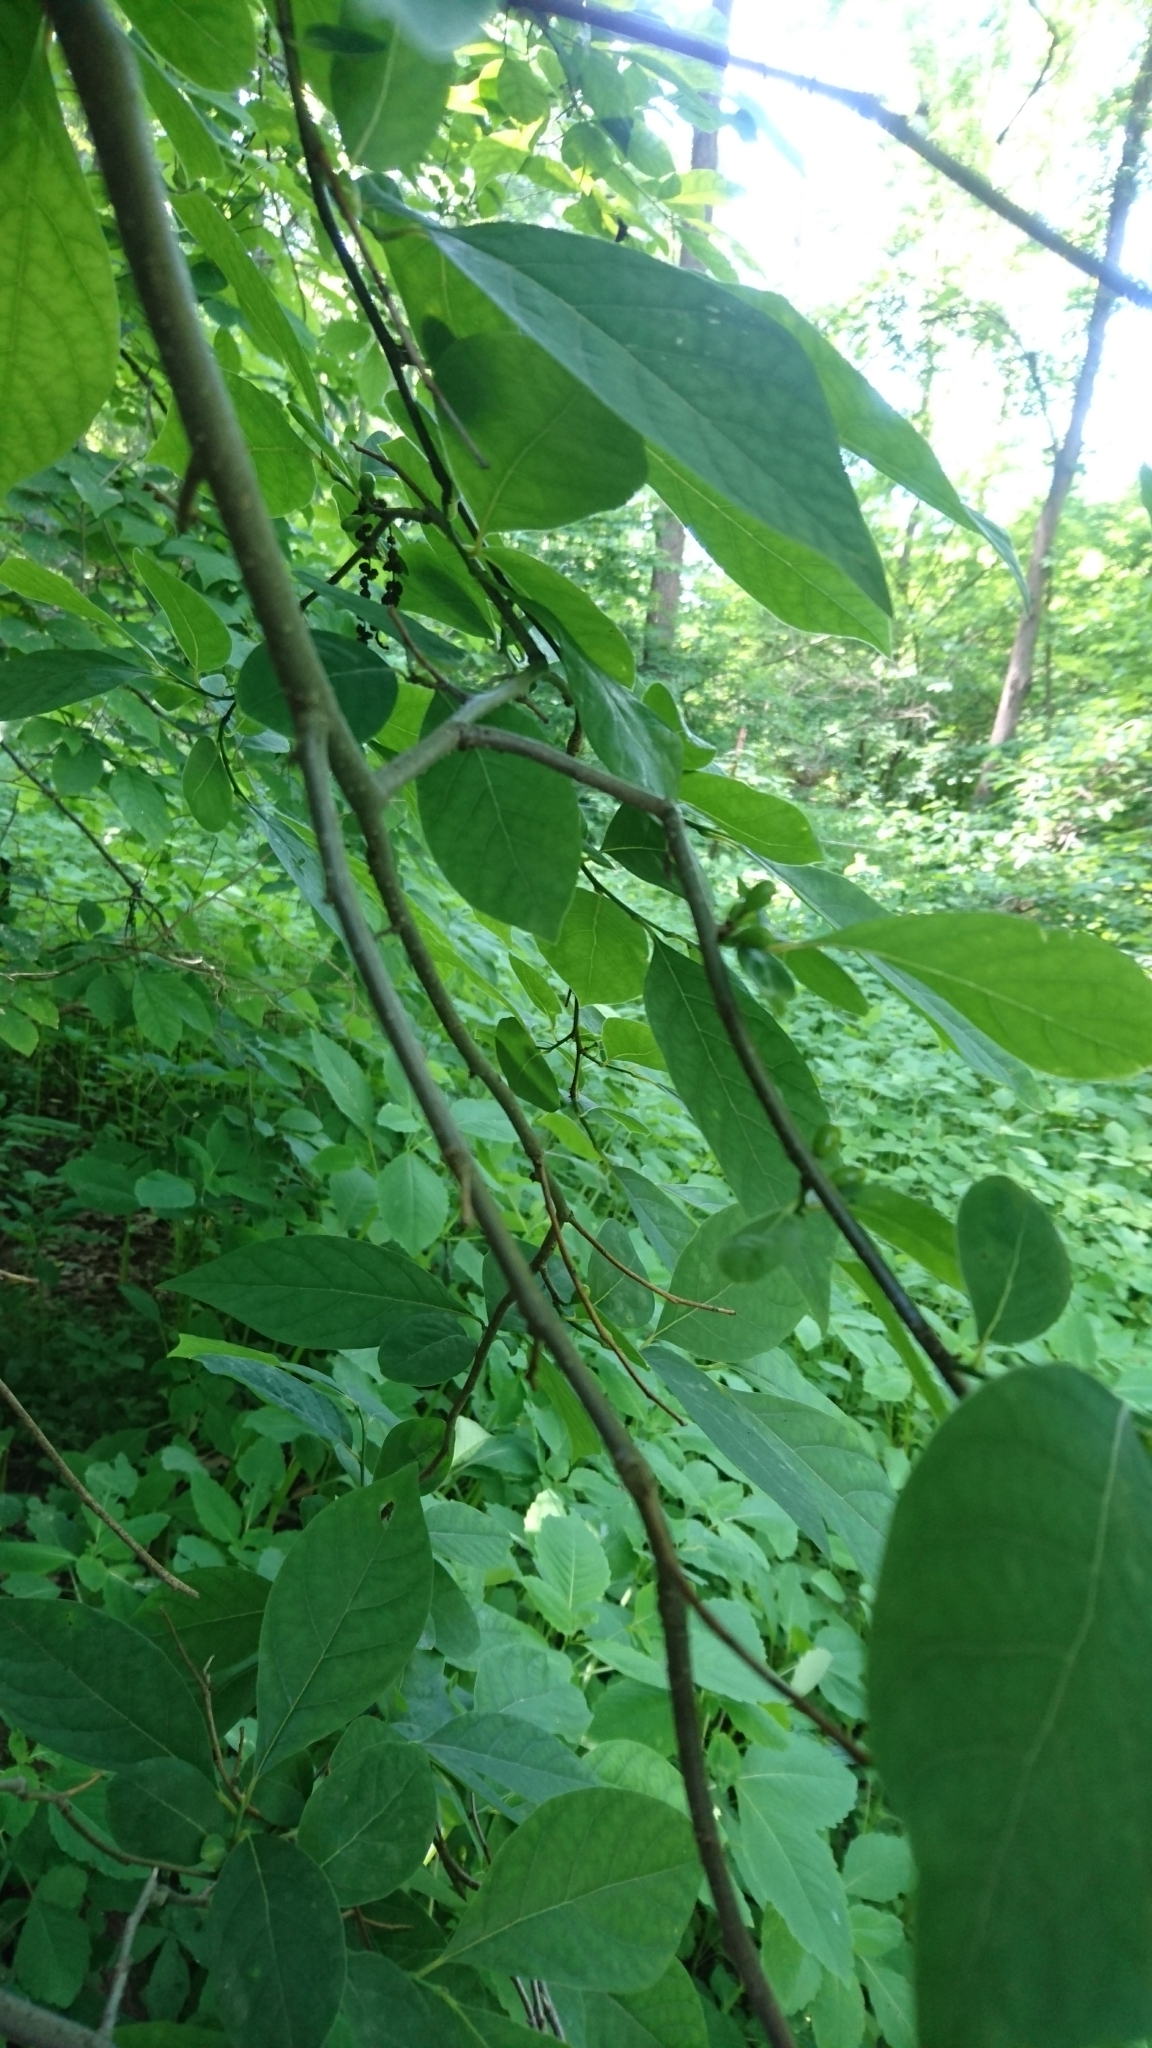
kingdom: Plantae
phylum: Tracheophyta
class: Magnoliopsida
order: Laurales
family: Lauraceae
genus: Lindera
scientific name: Lindera benzoin
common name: Spicebush
